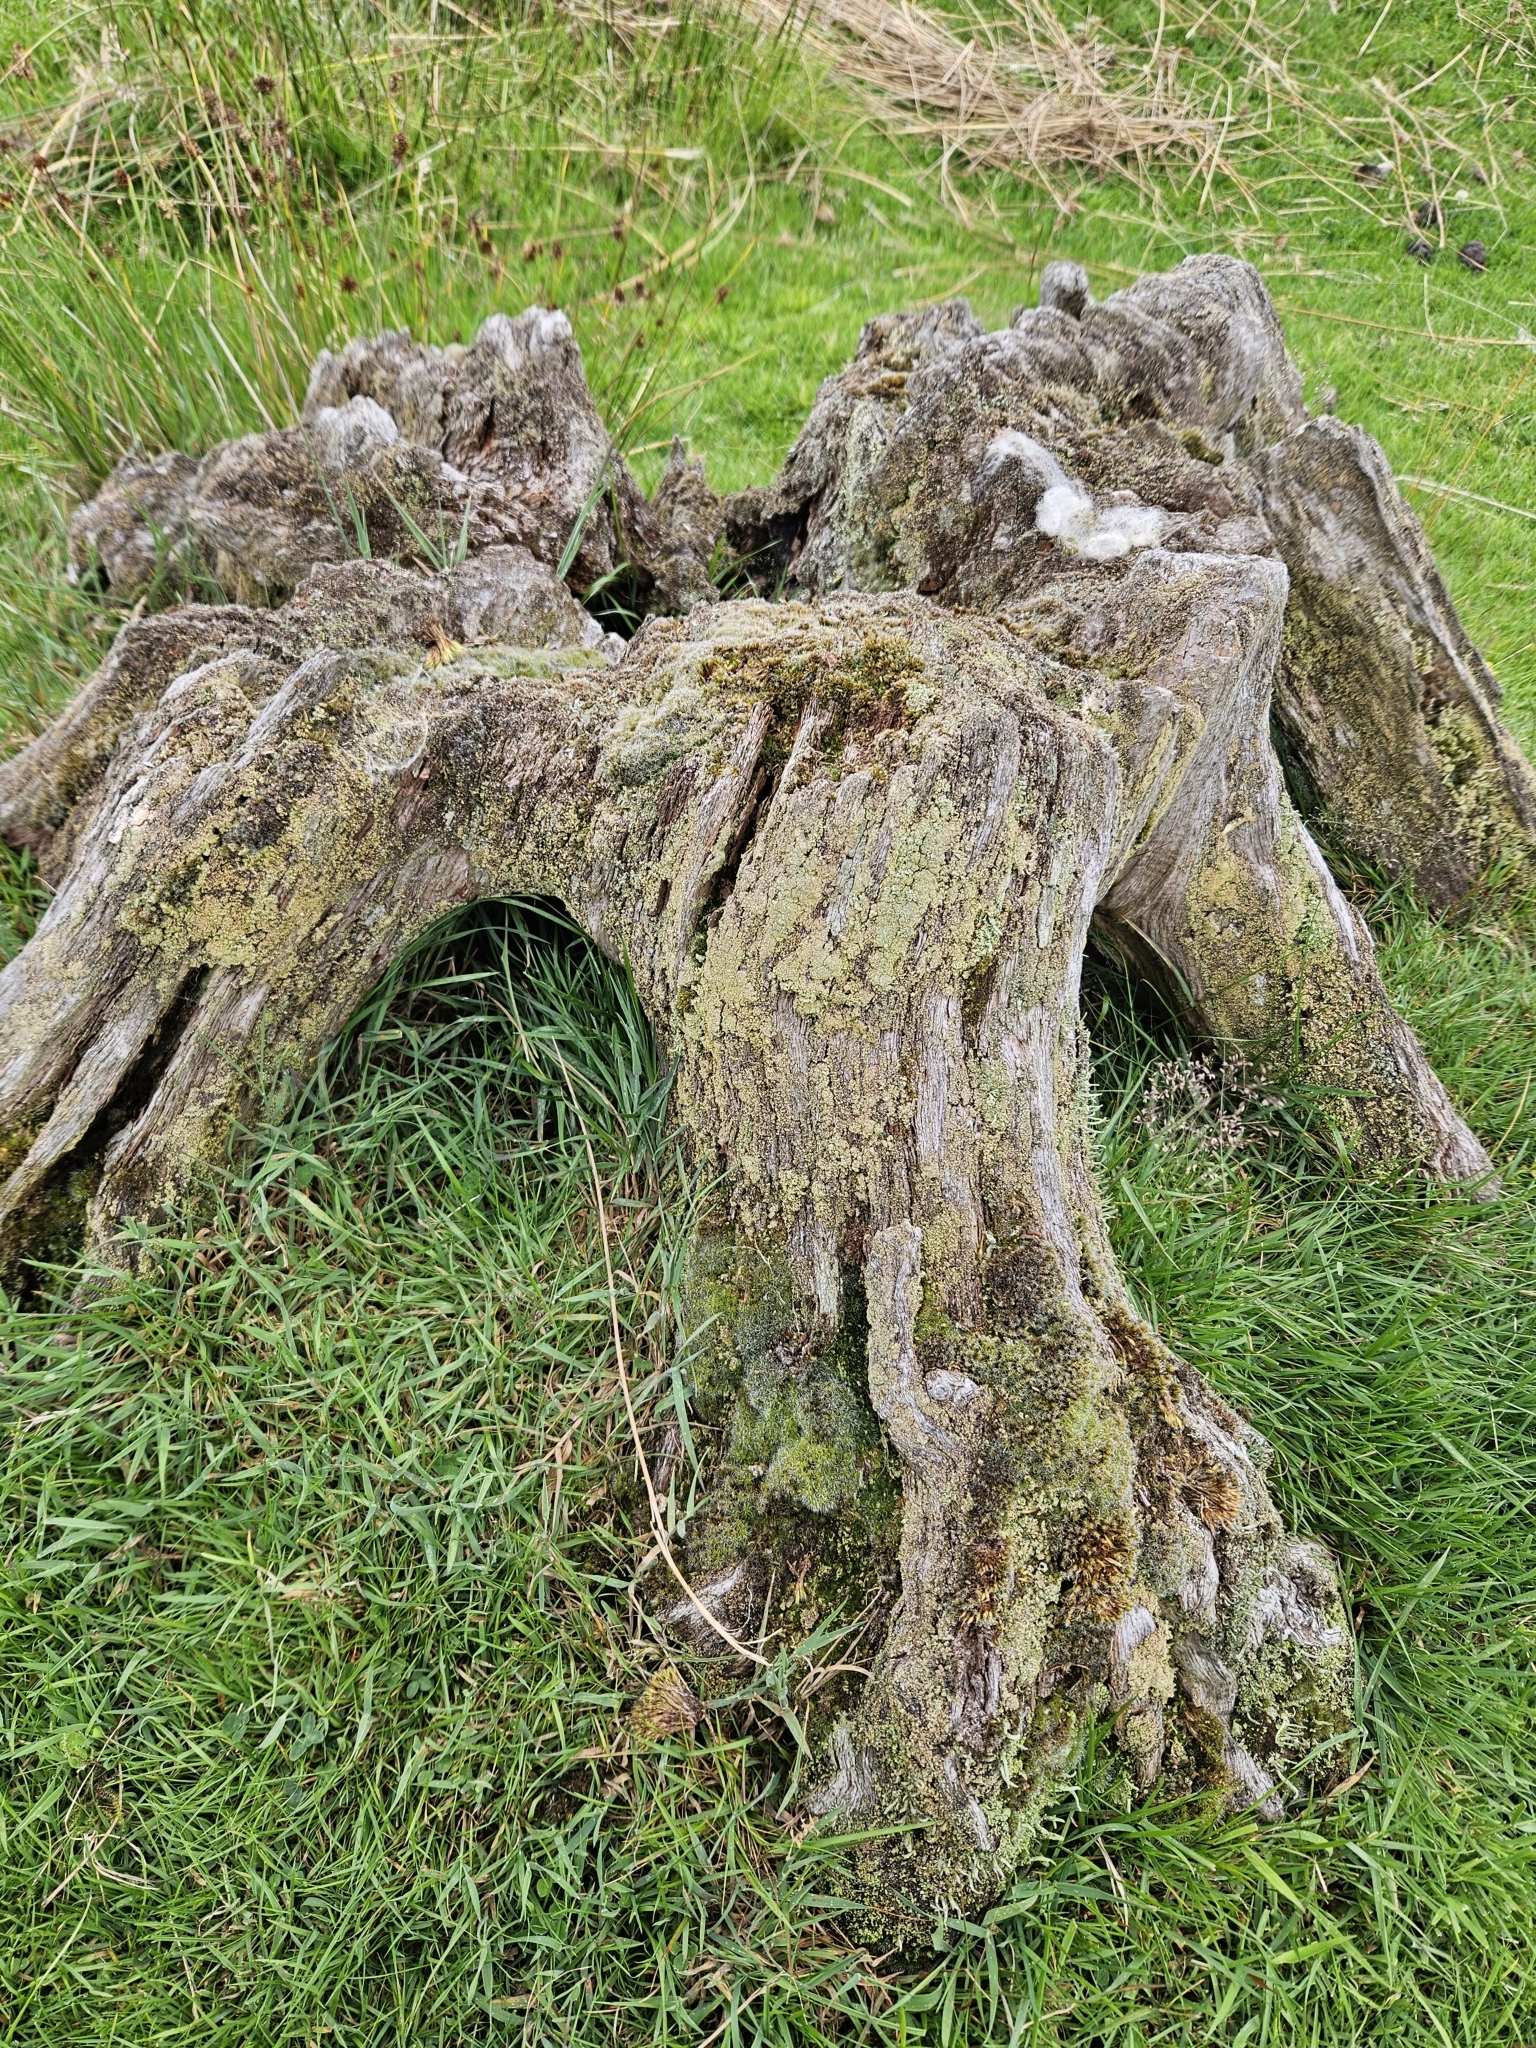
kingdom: Plantae
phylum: Bryophyta
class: Bryopsida
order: Dicranales
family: Leucobryaceae
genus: Campylopus
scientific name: Campylopus introflexus
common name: Heath star moss
